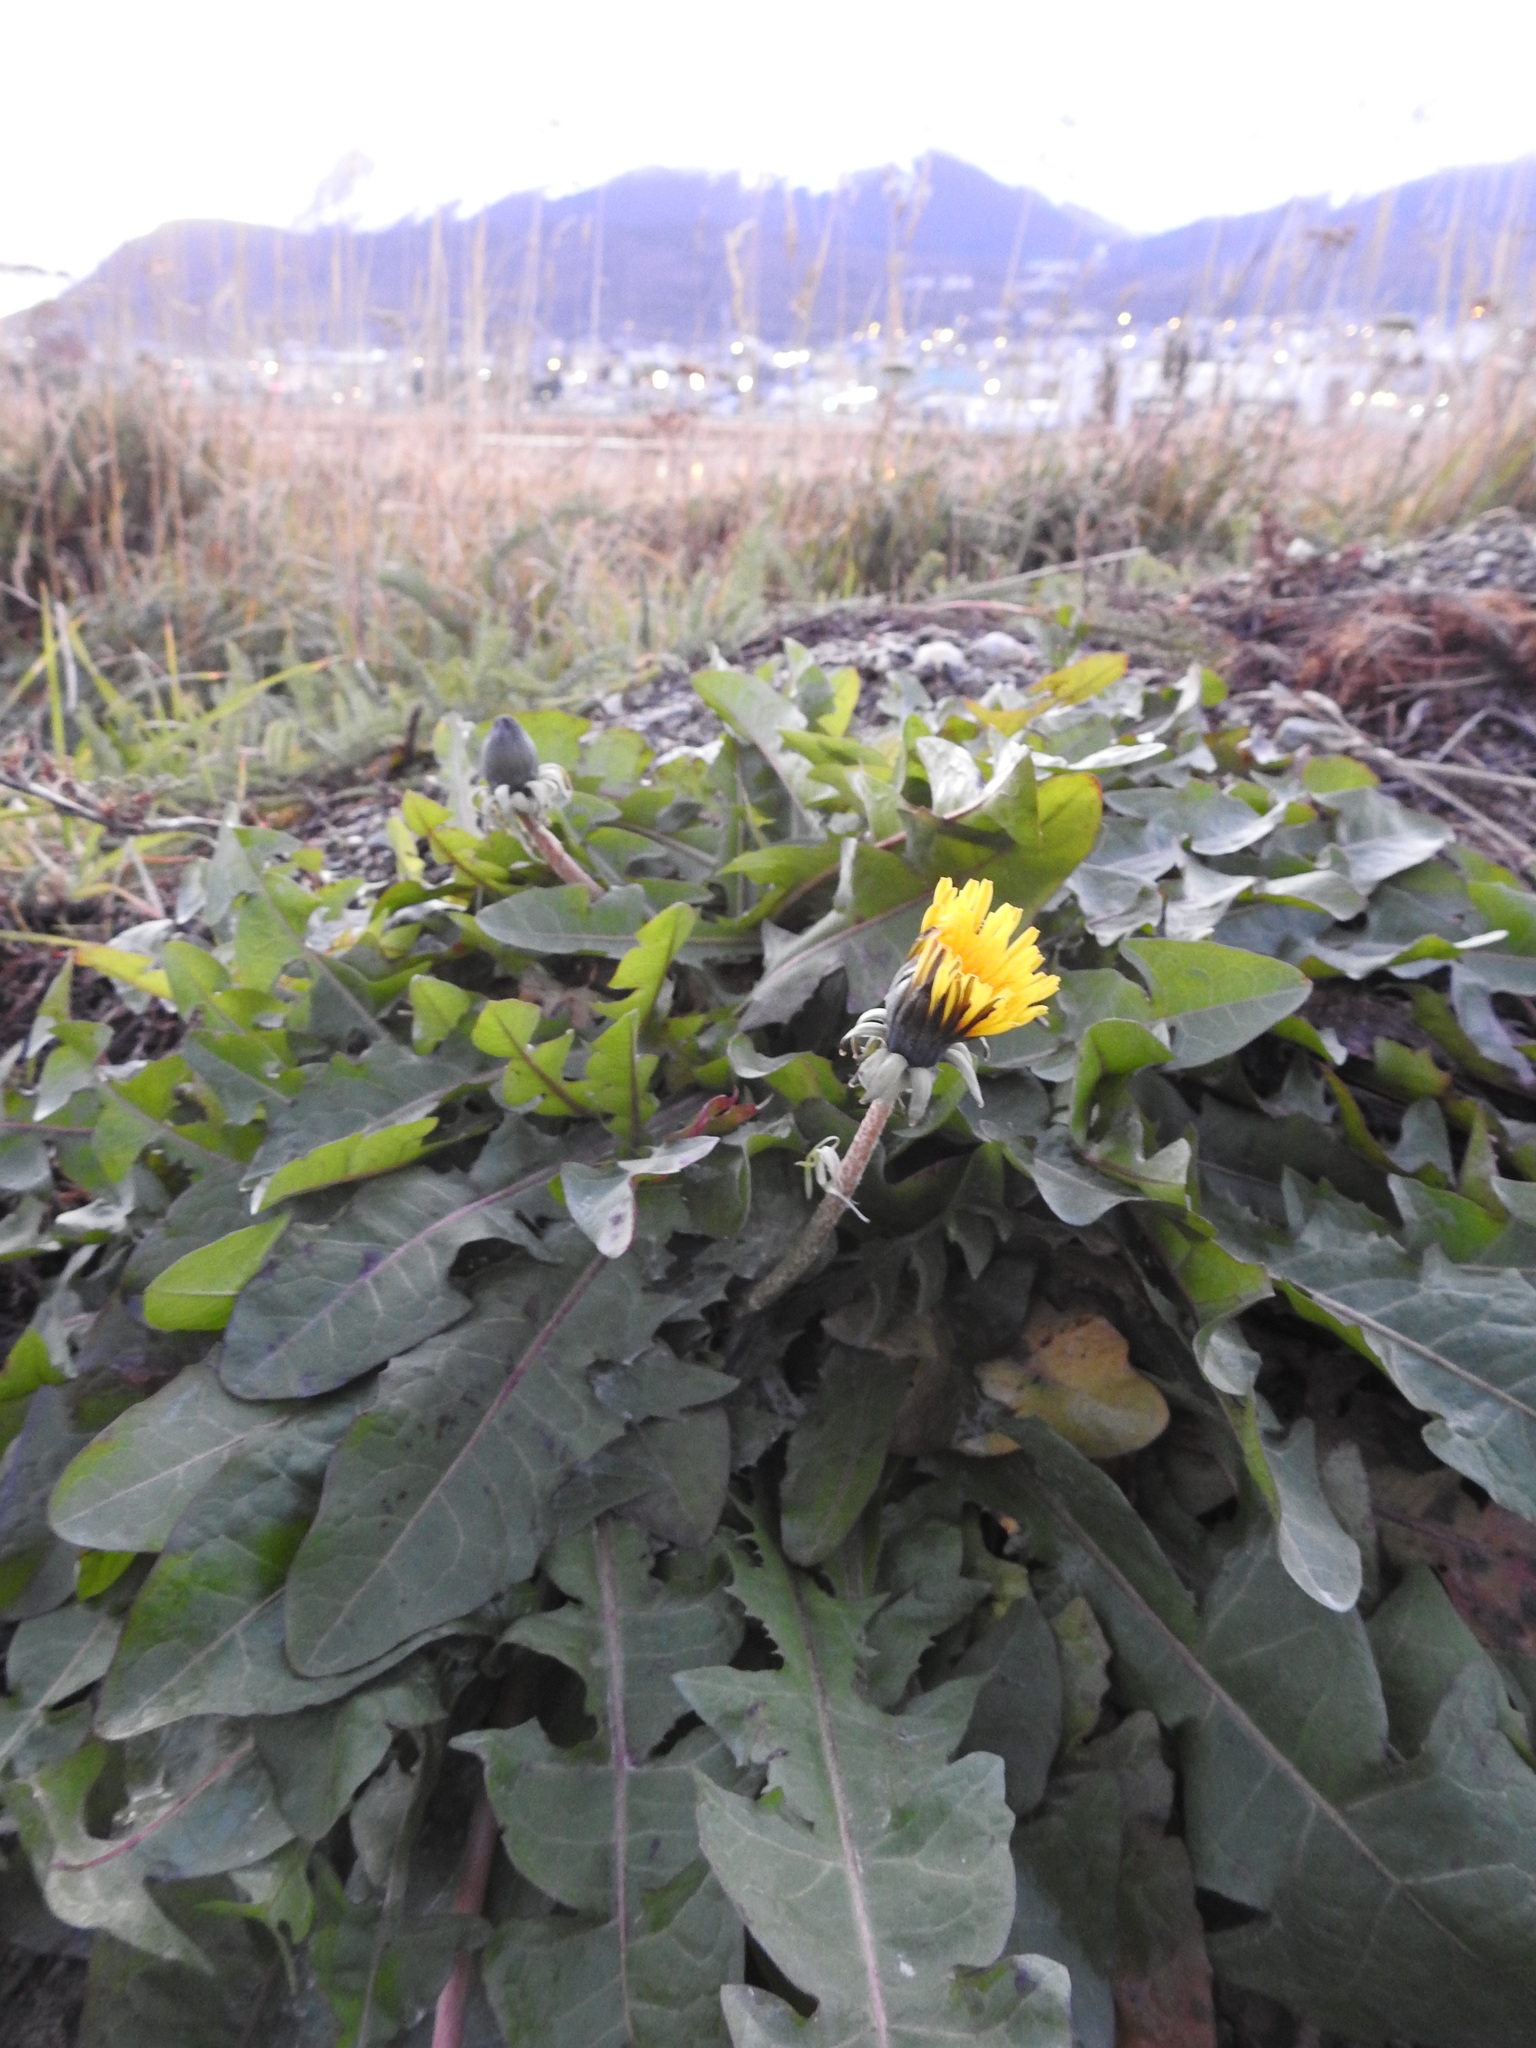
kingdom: Plantae
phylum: Tracheophyta
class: Magnoliopsida
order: Asterales
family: Asteraceae
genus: Taraxacum
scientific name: Taraxacum officinale
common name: Common dandelion
